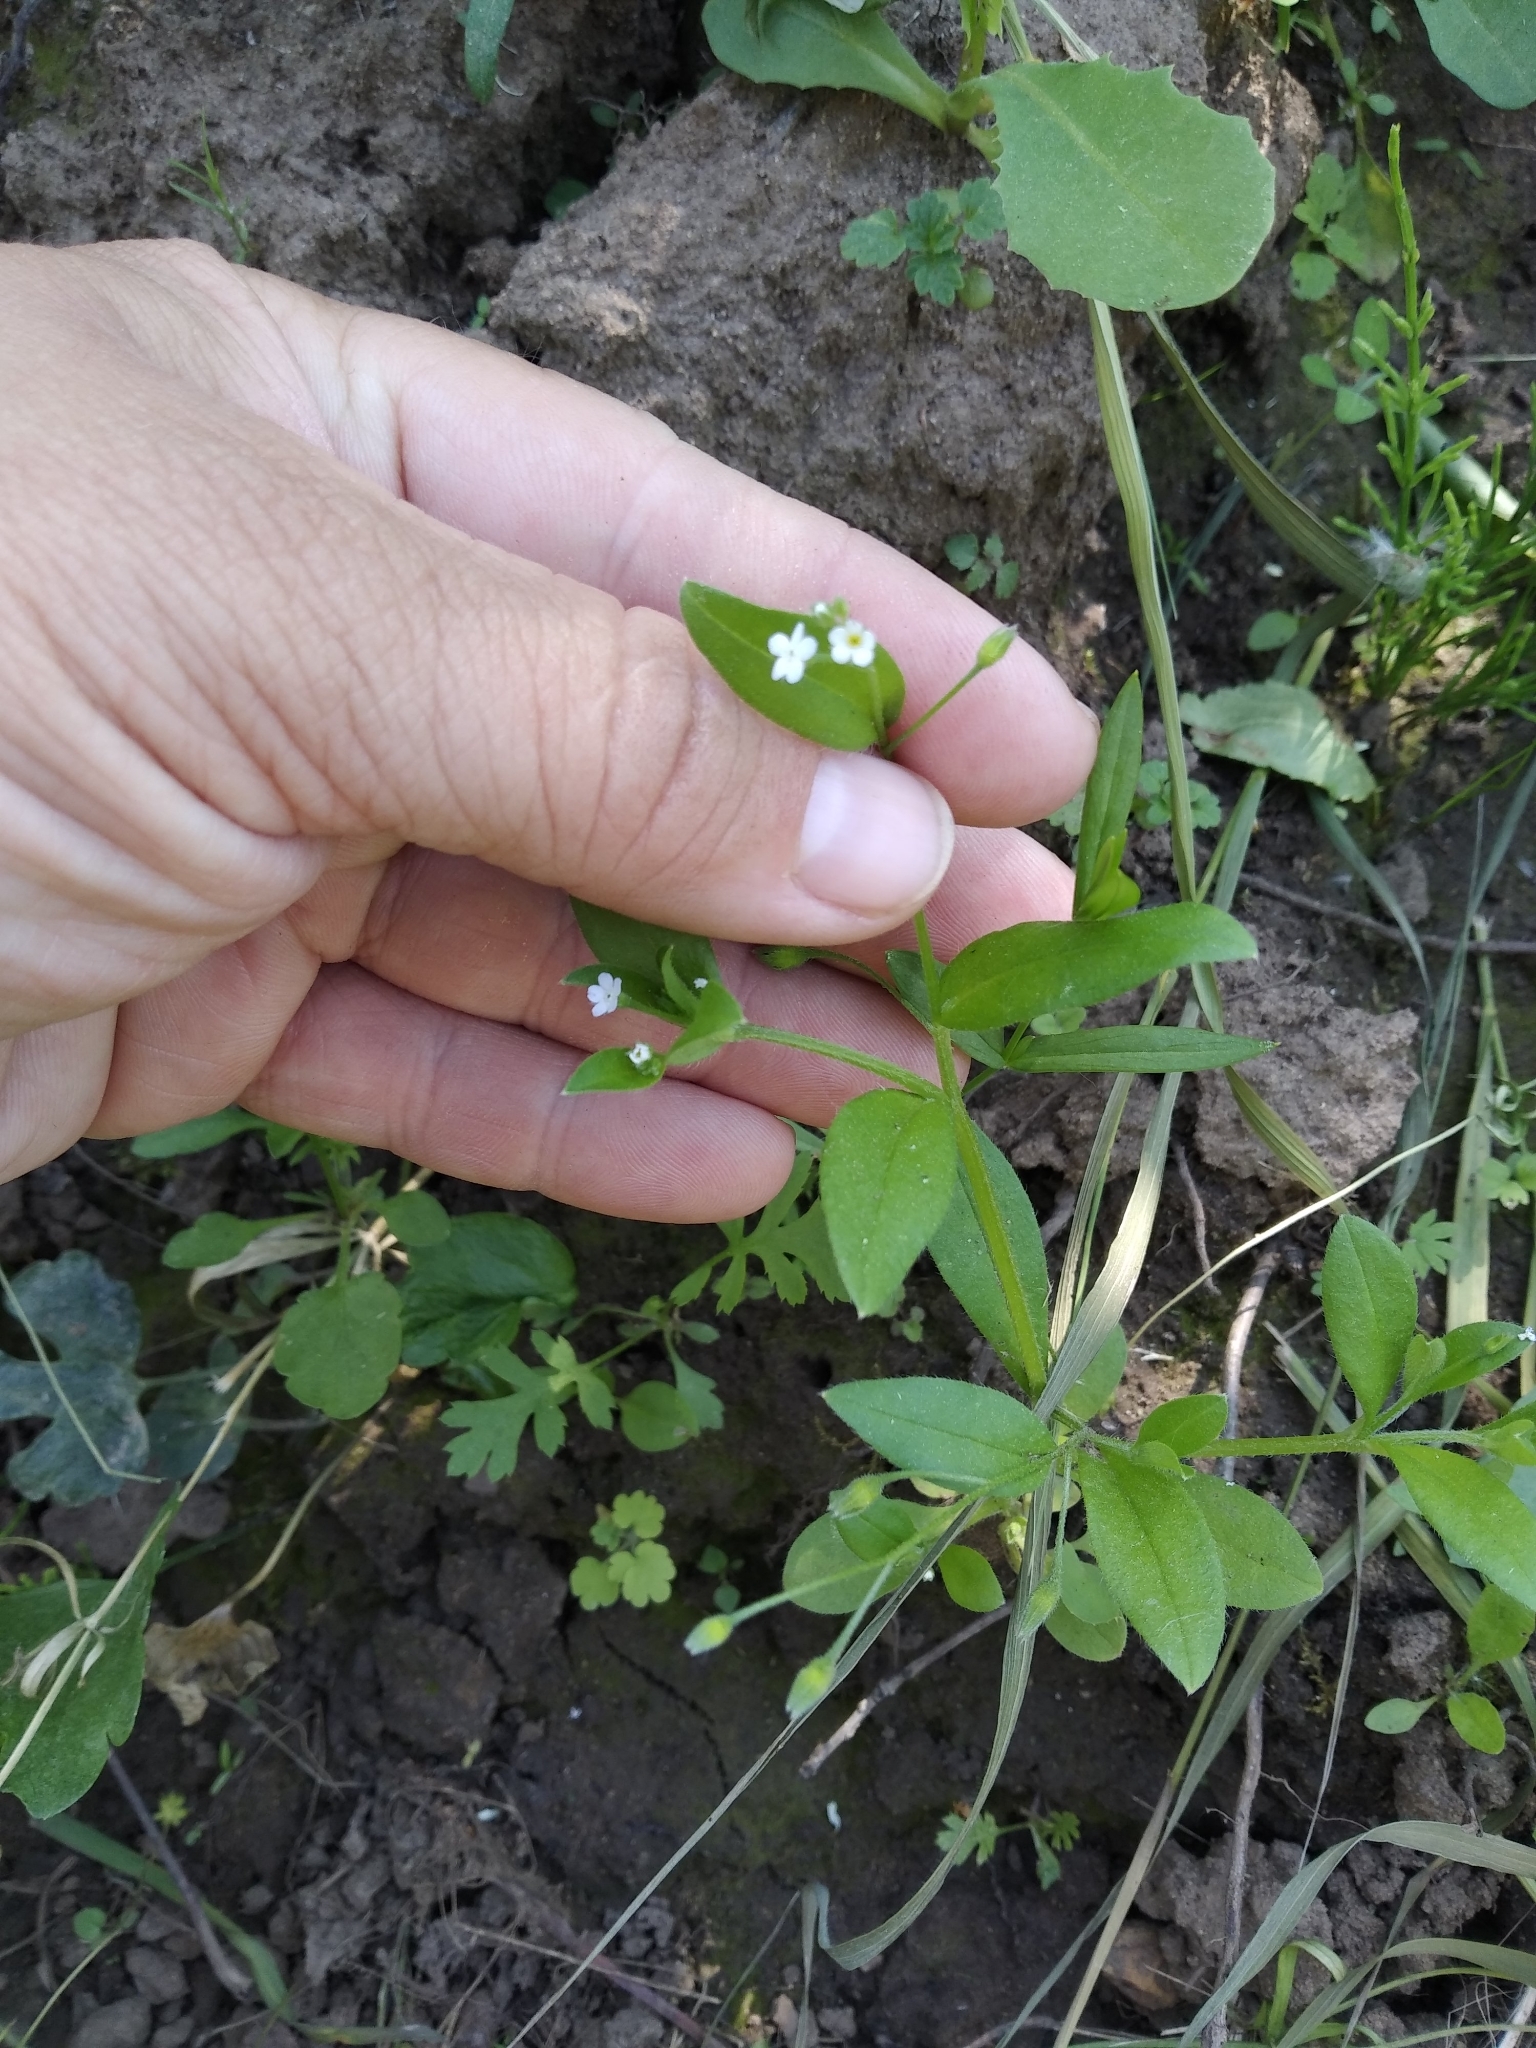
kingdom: Plantae
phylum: Tracheophyta
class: Magnoliopsida
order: Boraginales
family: Boraginaceae
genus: Myosotis
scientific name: Myosotis sparsiflora
